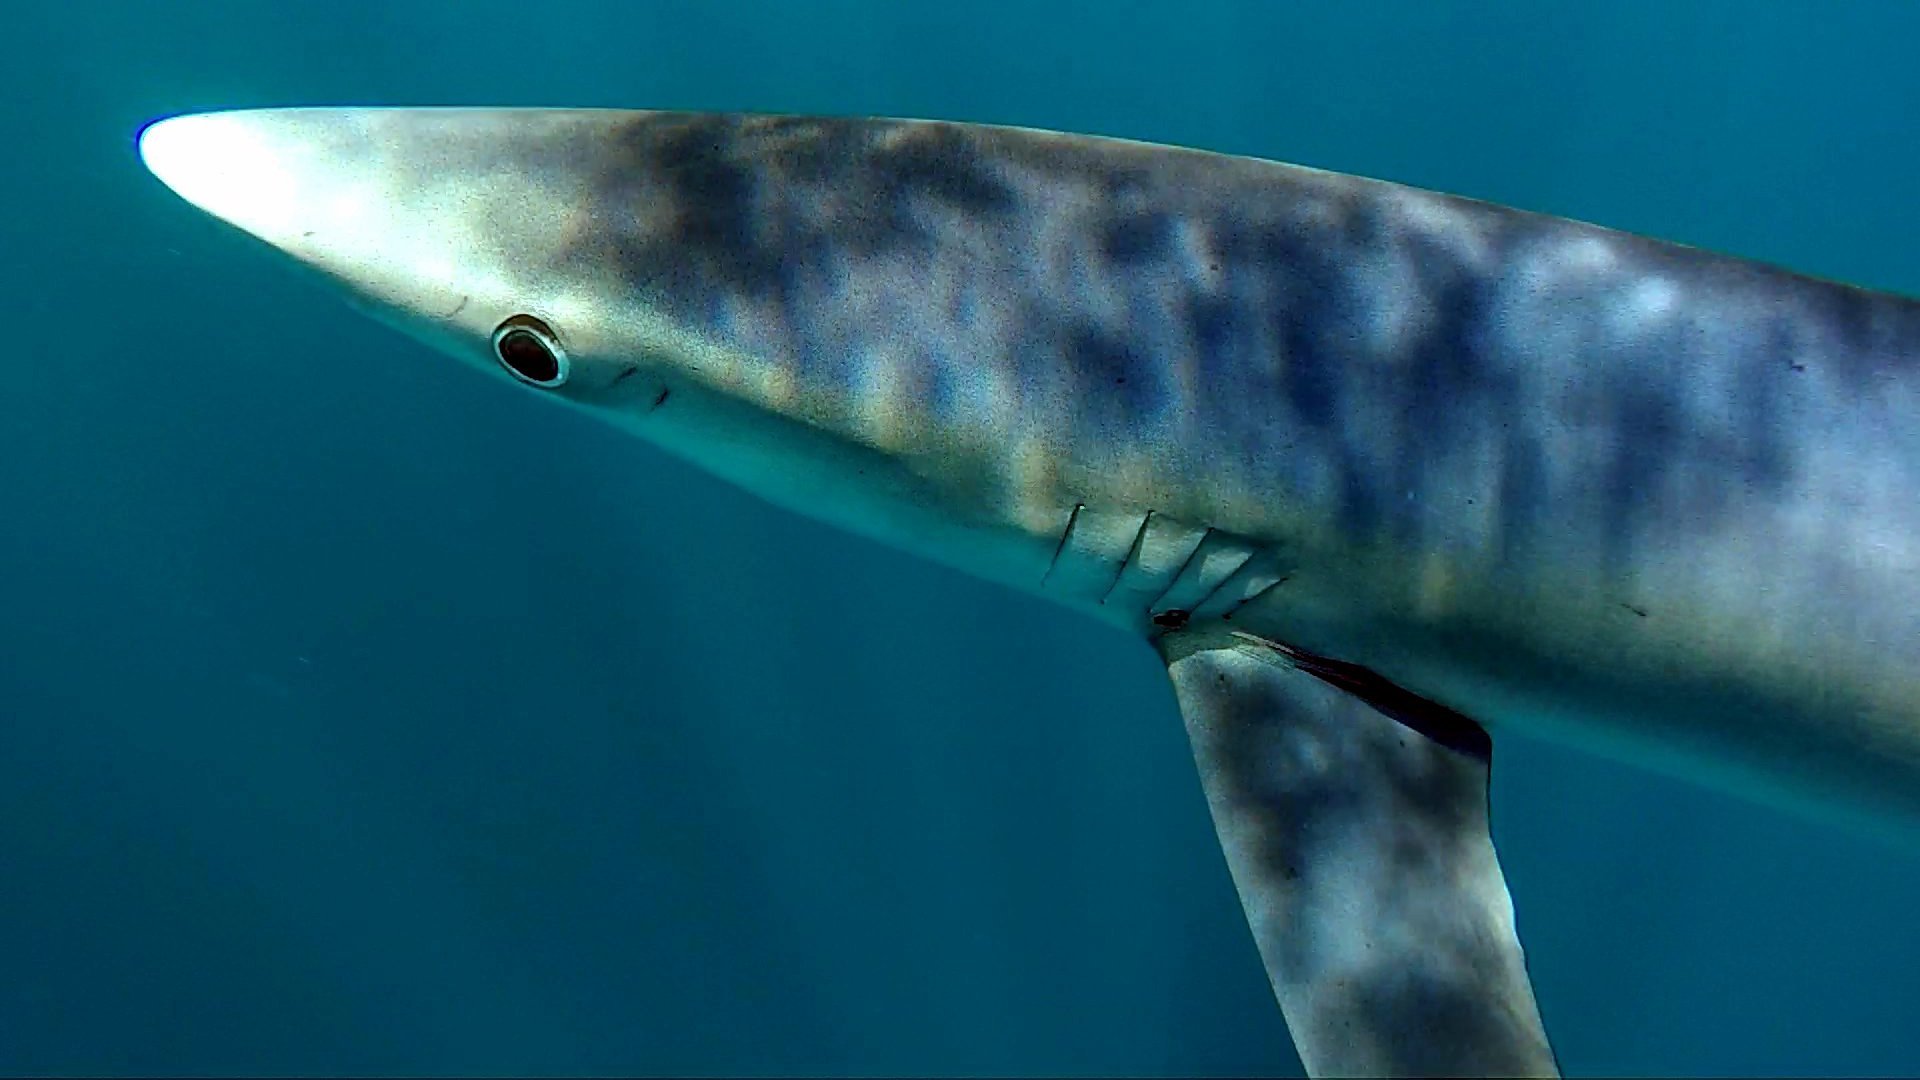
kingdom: Animalia
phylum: Chordata
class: Elasmobranchii
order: Carcharhiniformes
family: Carcharhinidae
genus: Prionace
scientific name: Prionace glauca
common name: Blue shark
